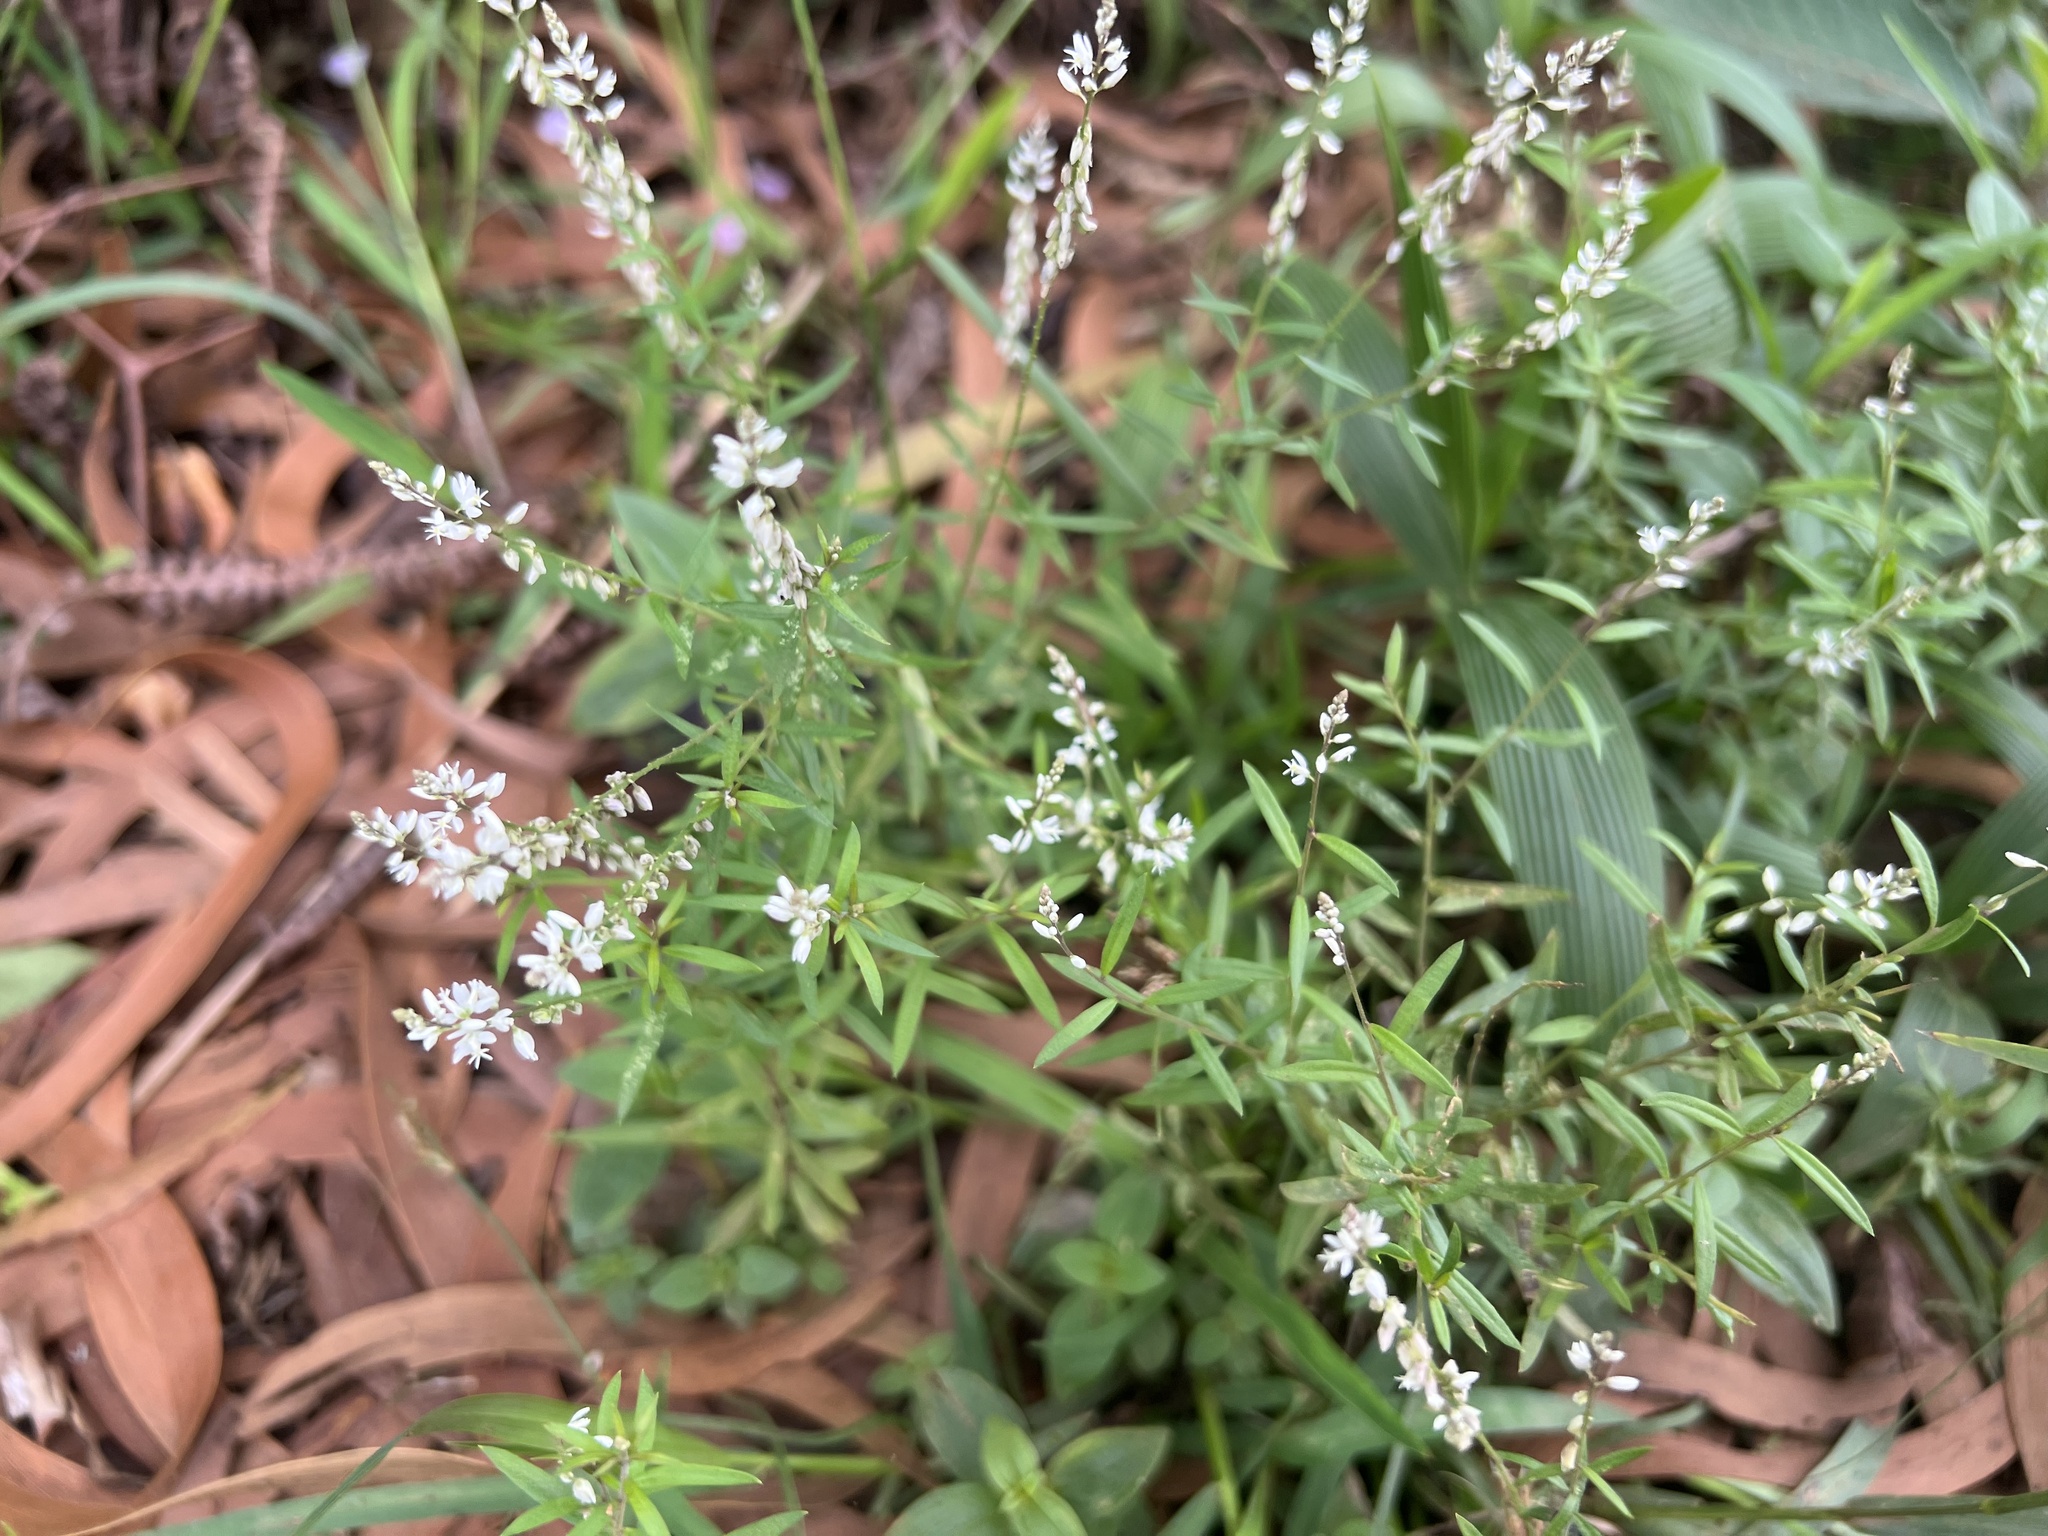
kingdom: Plantae
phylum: Tracheophyta
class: Magnoliopsida
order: Fabales
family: Polygalaceae
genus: Polygala
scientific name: Polygala paniculata
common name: Orosne
